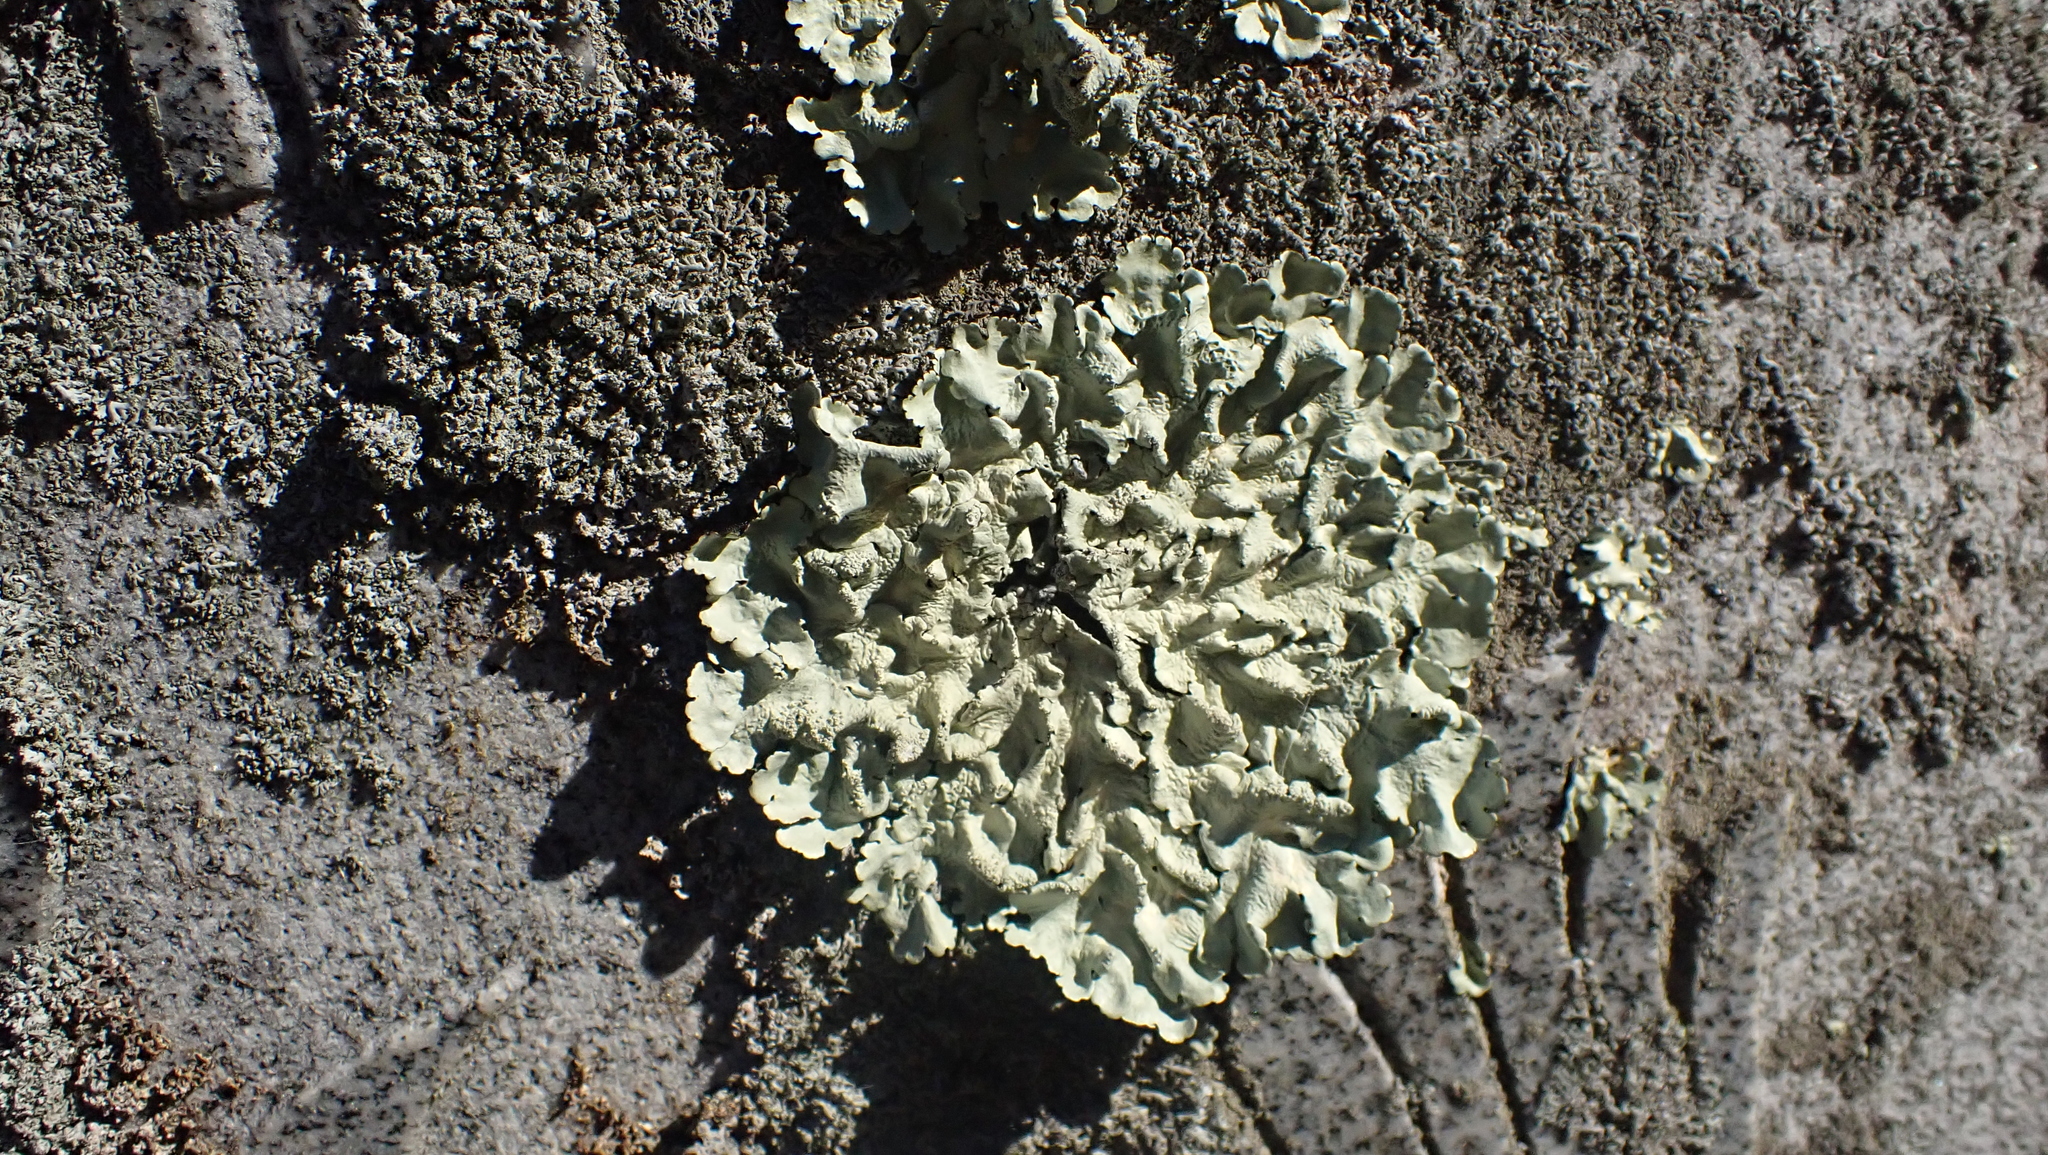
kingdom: Fungi
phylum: Ascomycota
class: Lecanoromycetes
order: Lecanorales
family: Parmeliaceae
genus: Flavoparmelia
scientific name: Flavoparmelia caperata
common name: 40-mile per hour lichen
